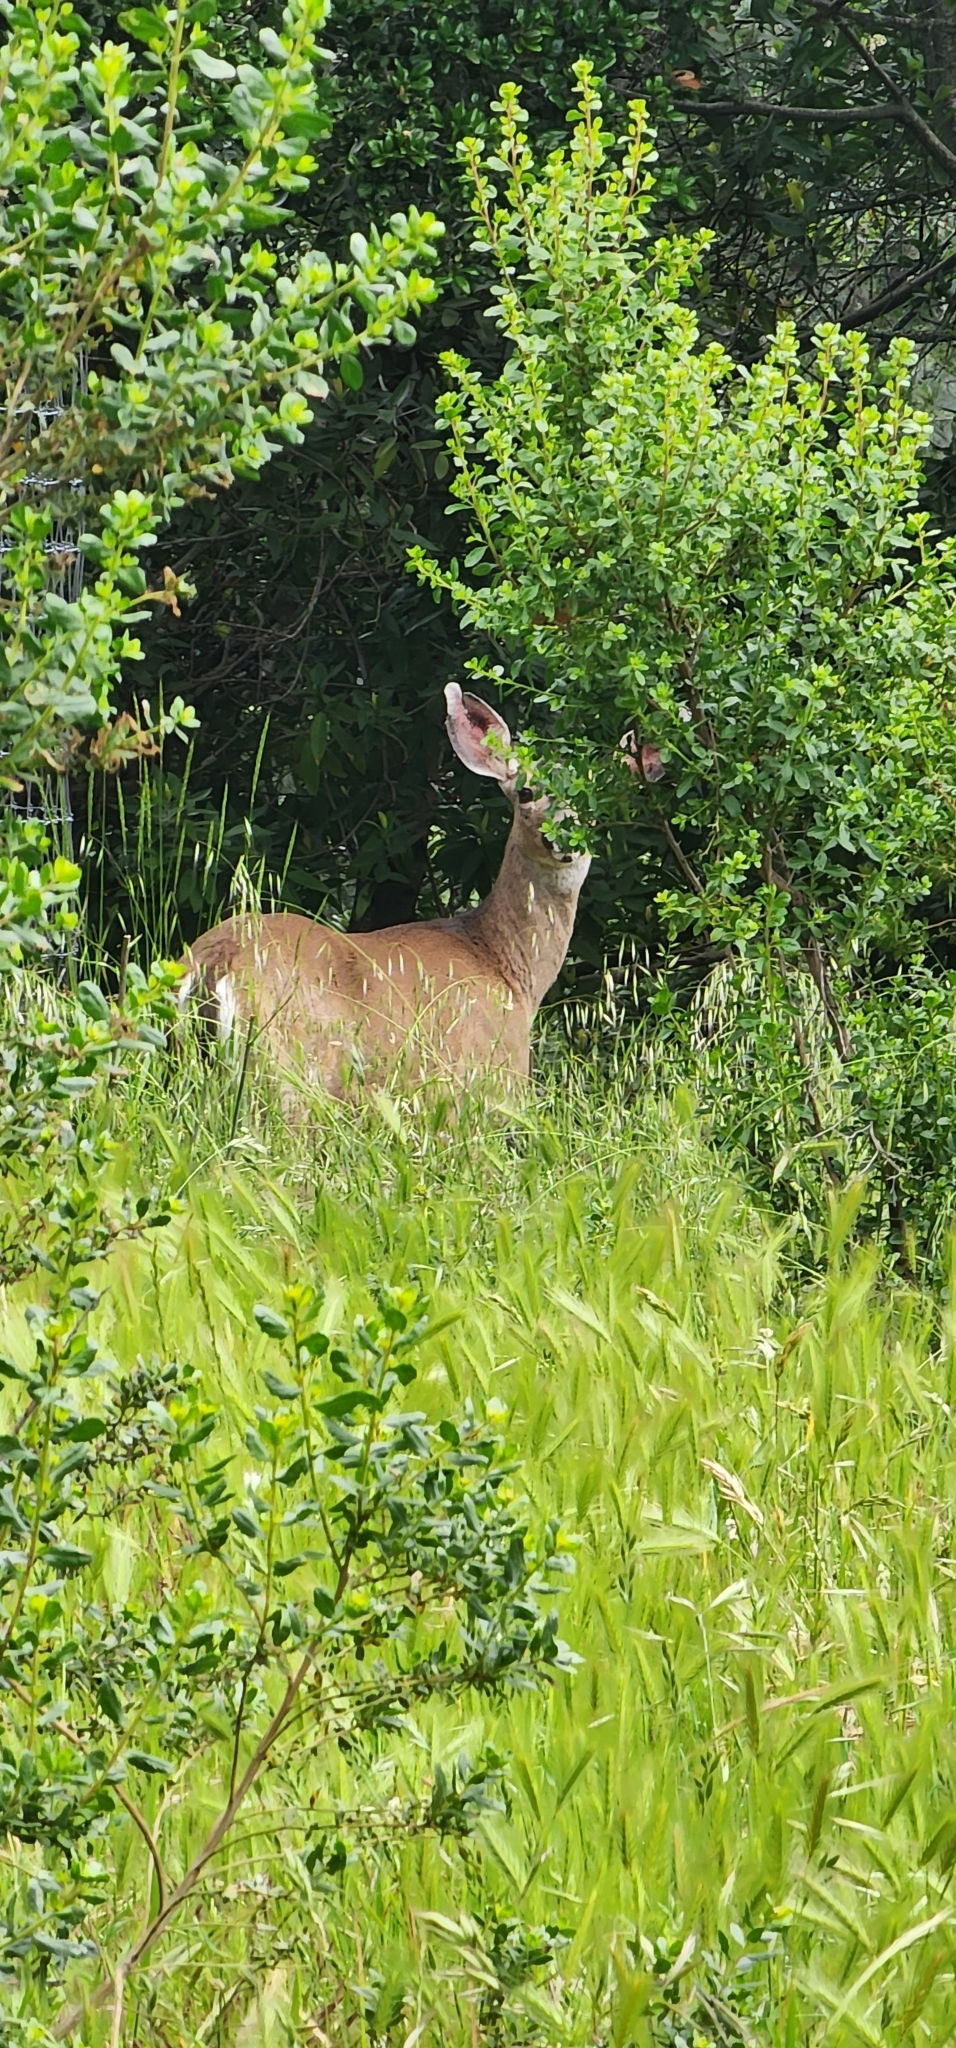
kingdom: Animalia
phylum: Chordata
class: Mammalia
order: Artiodactyla
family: Cervidae
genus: Odocoileus
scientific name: Odocoileus hemionus
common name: Mule deer
